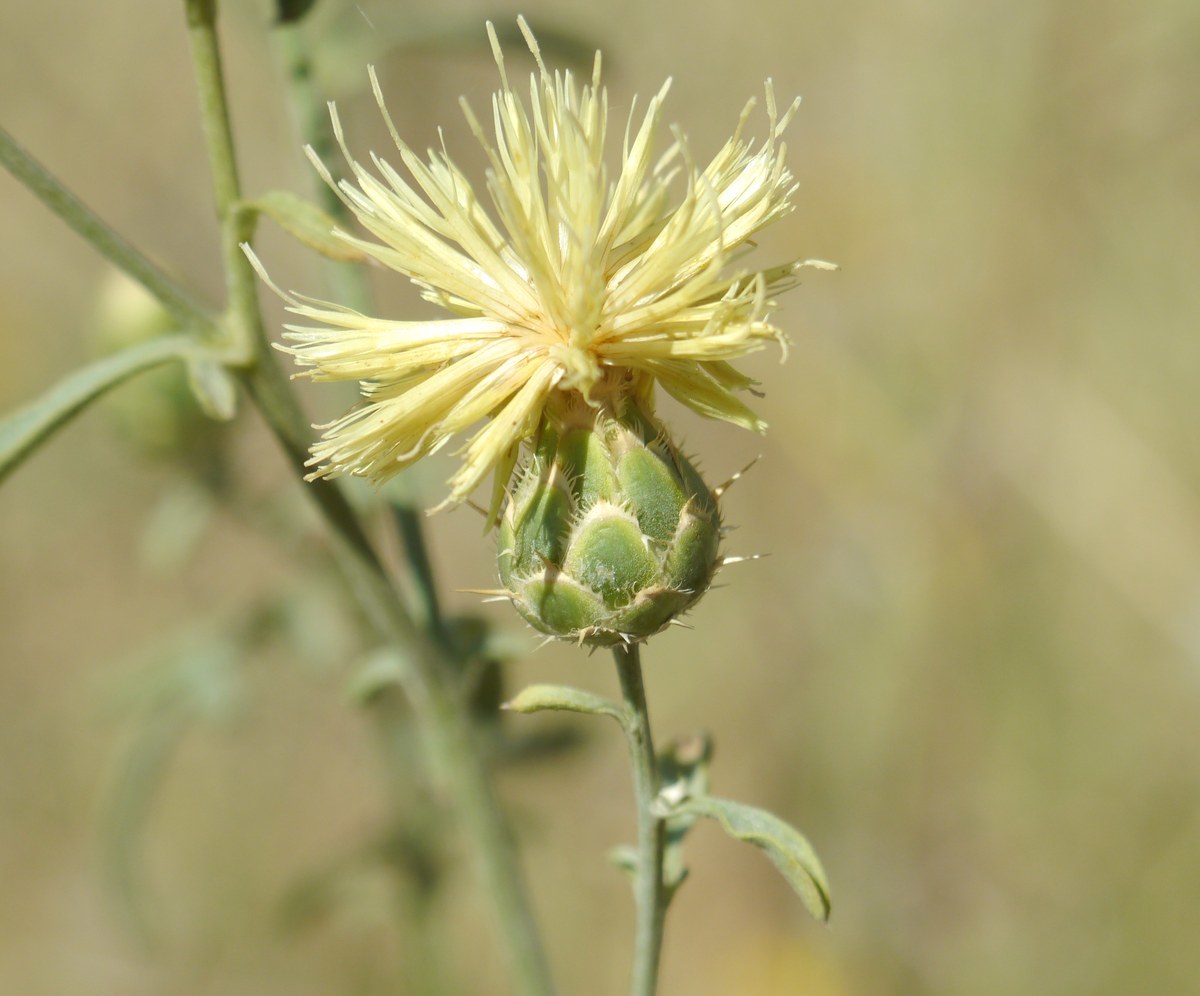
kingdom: Plantae
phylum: Tracheophyta
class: Magnoliopsida
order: Asterales
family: Asteraceae
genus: Centaurea
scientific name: Centaurea salonitana
